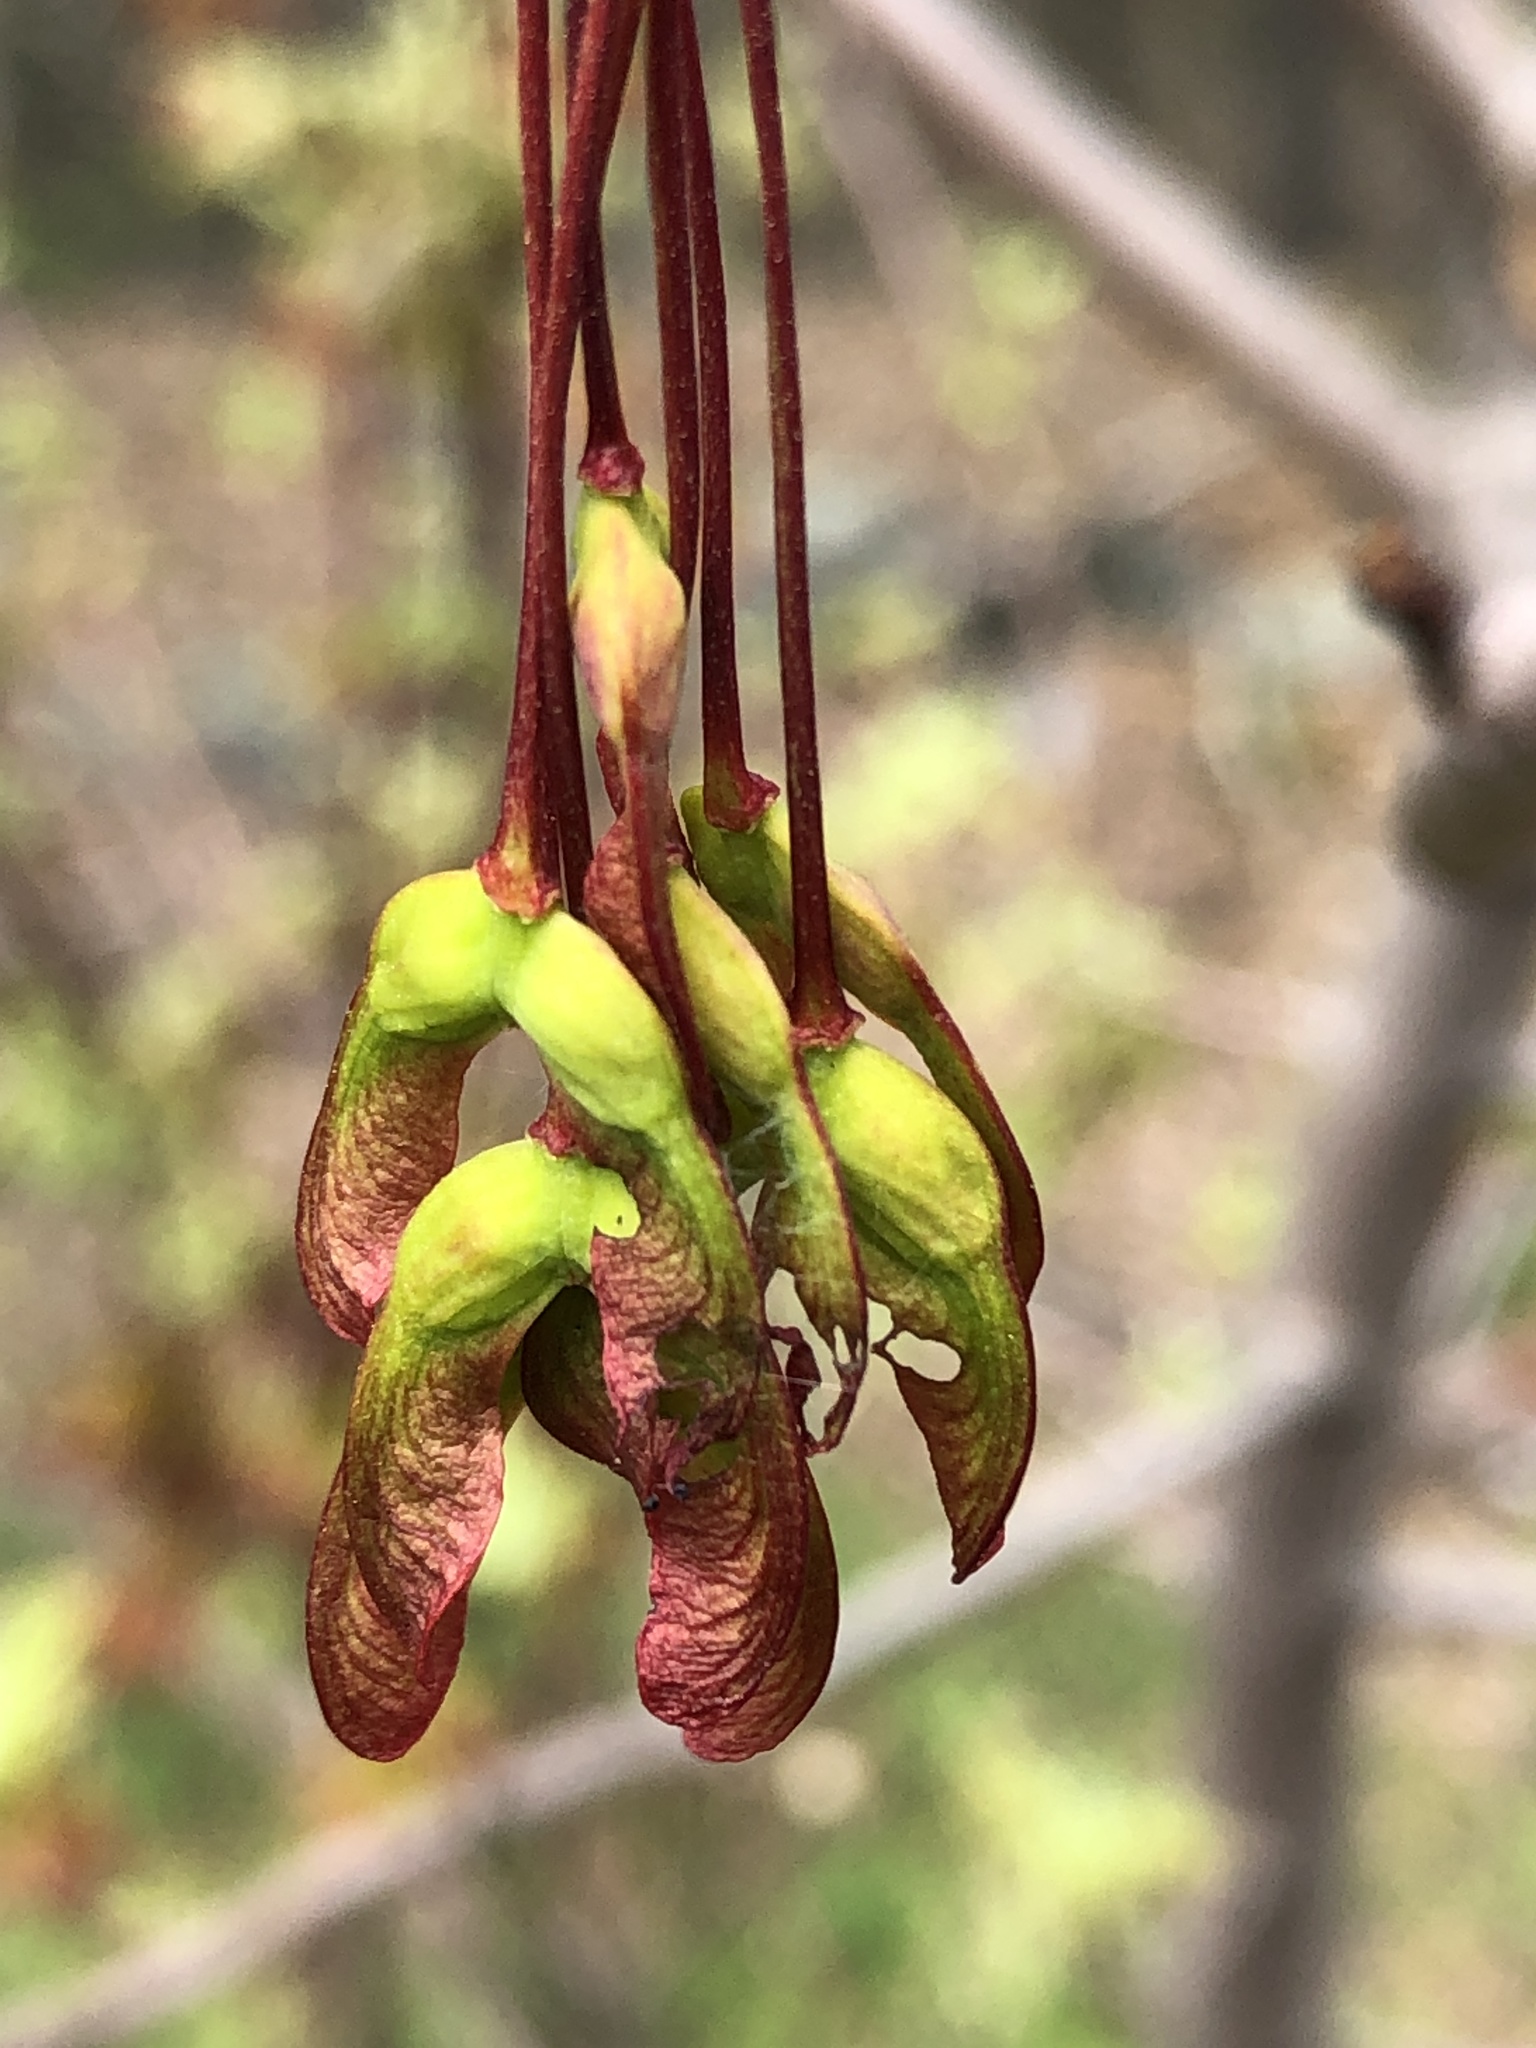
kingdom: Plantae
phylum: Tracheophyta
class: Magnoliopsida
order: Sapindales
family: Sapindaceae
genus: Acer
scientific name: Acer rubrum
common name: Red maple
